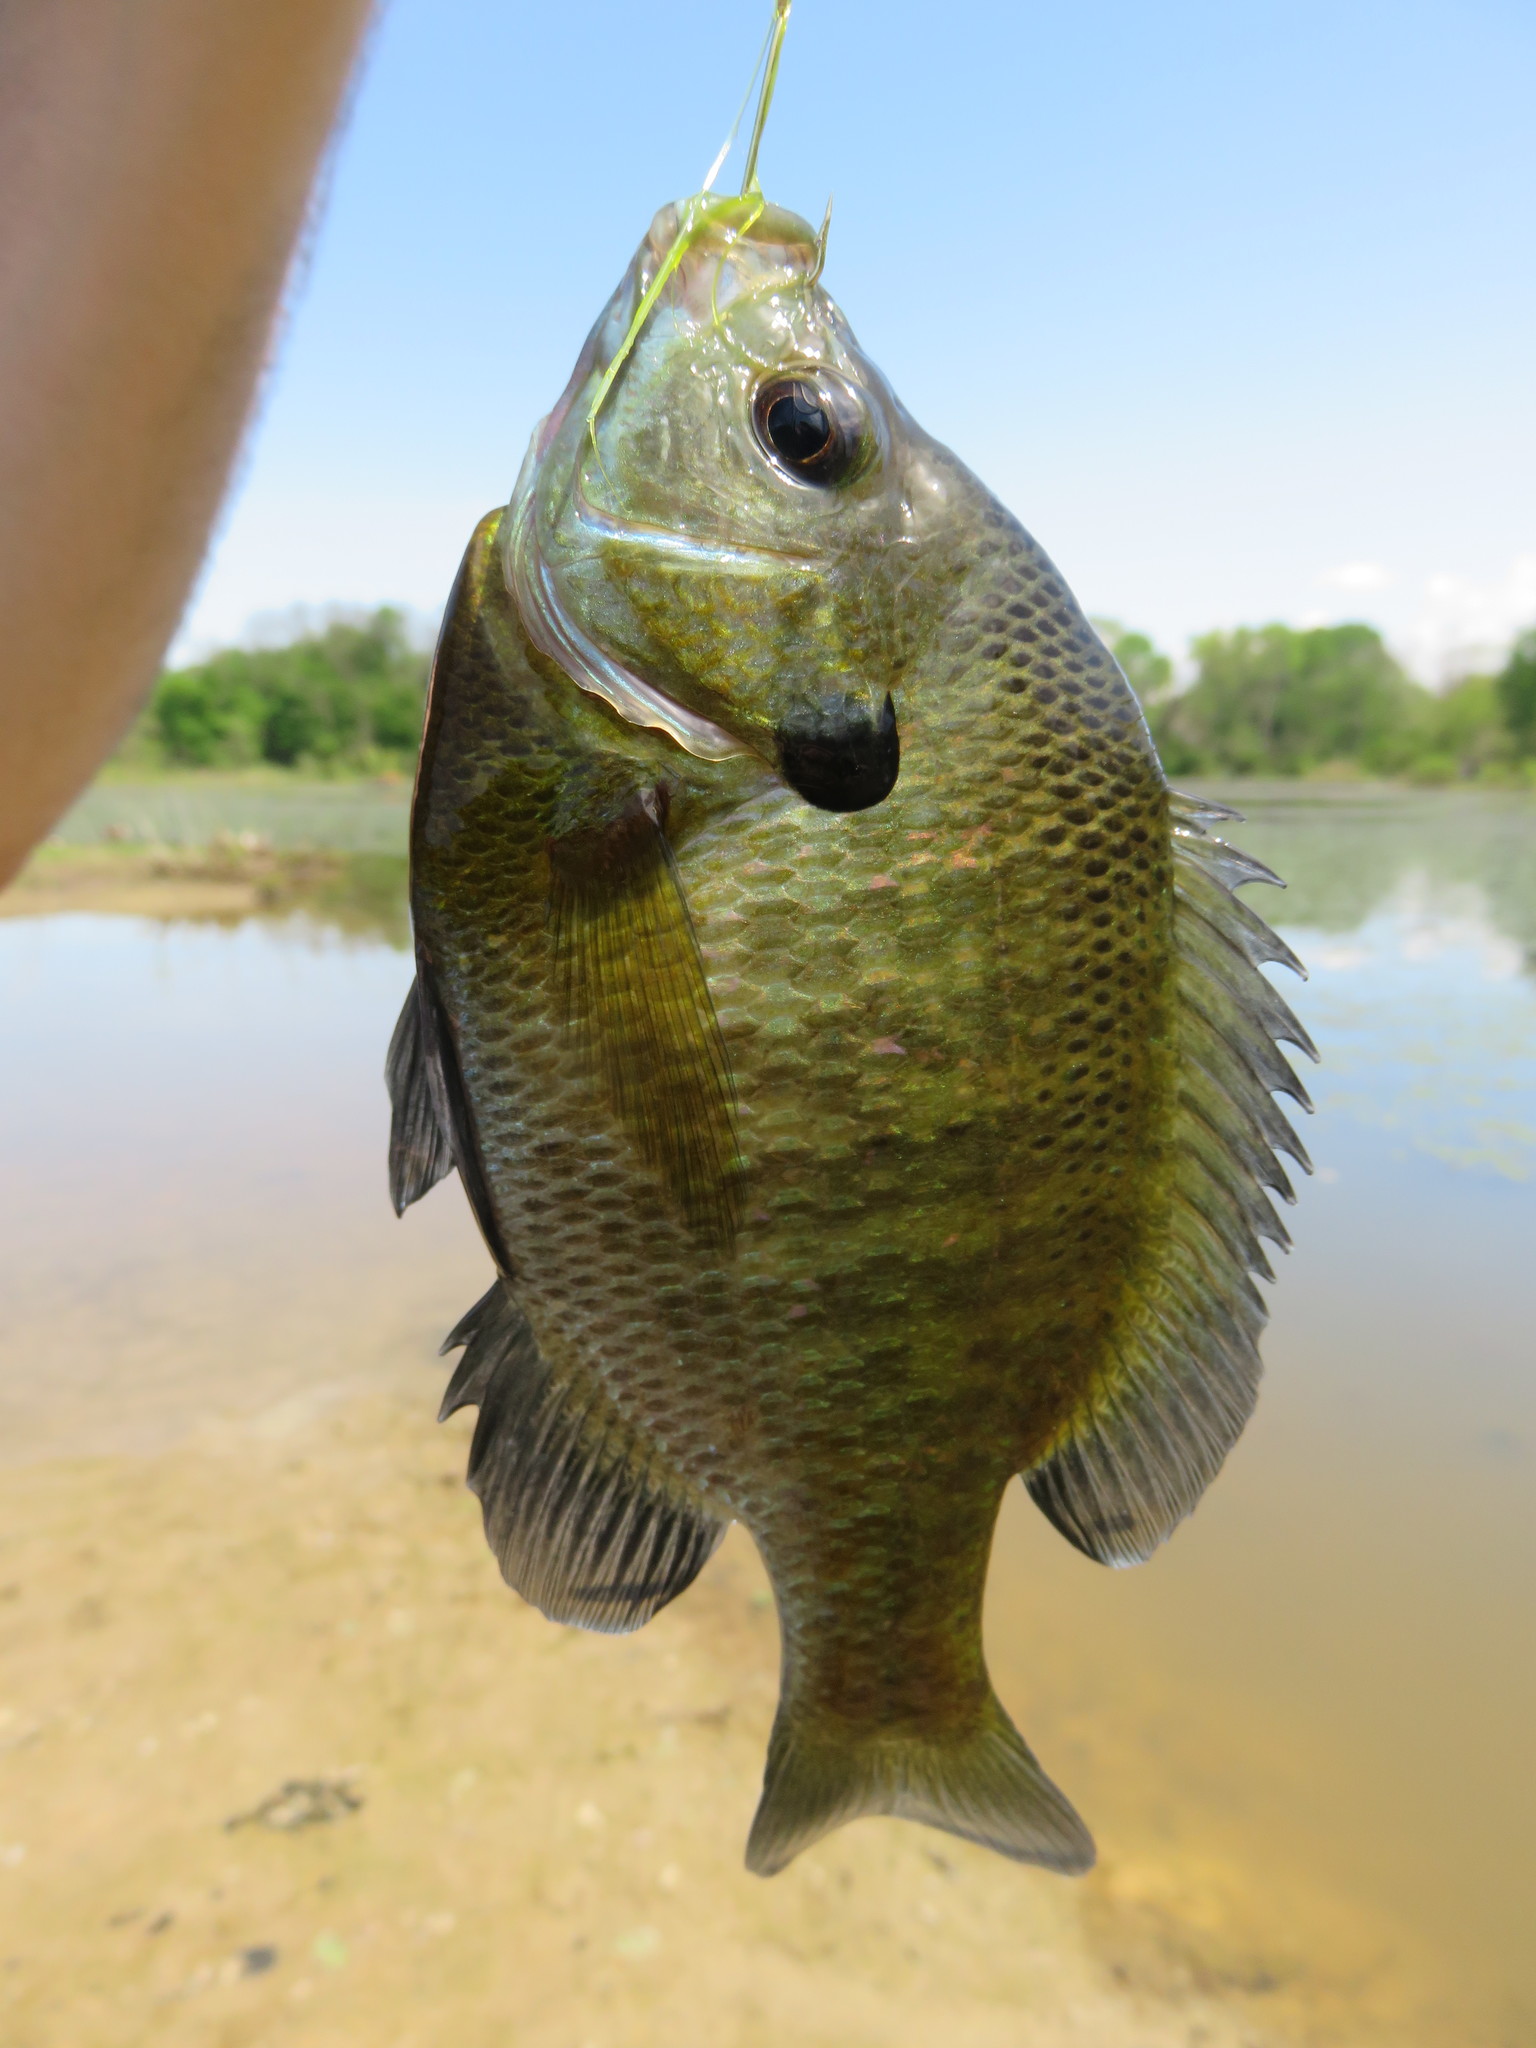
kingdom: Animalia
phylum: Chordata
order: Perciformes
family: Centrarchidae
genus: Lepomis
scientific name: Lepomis macrochirus
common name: Bluegill
